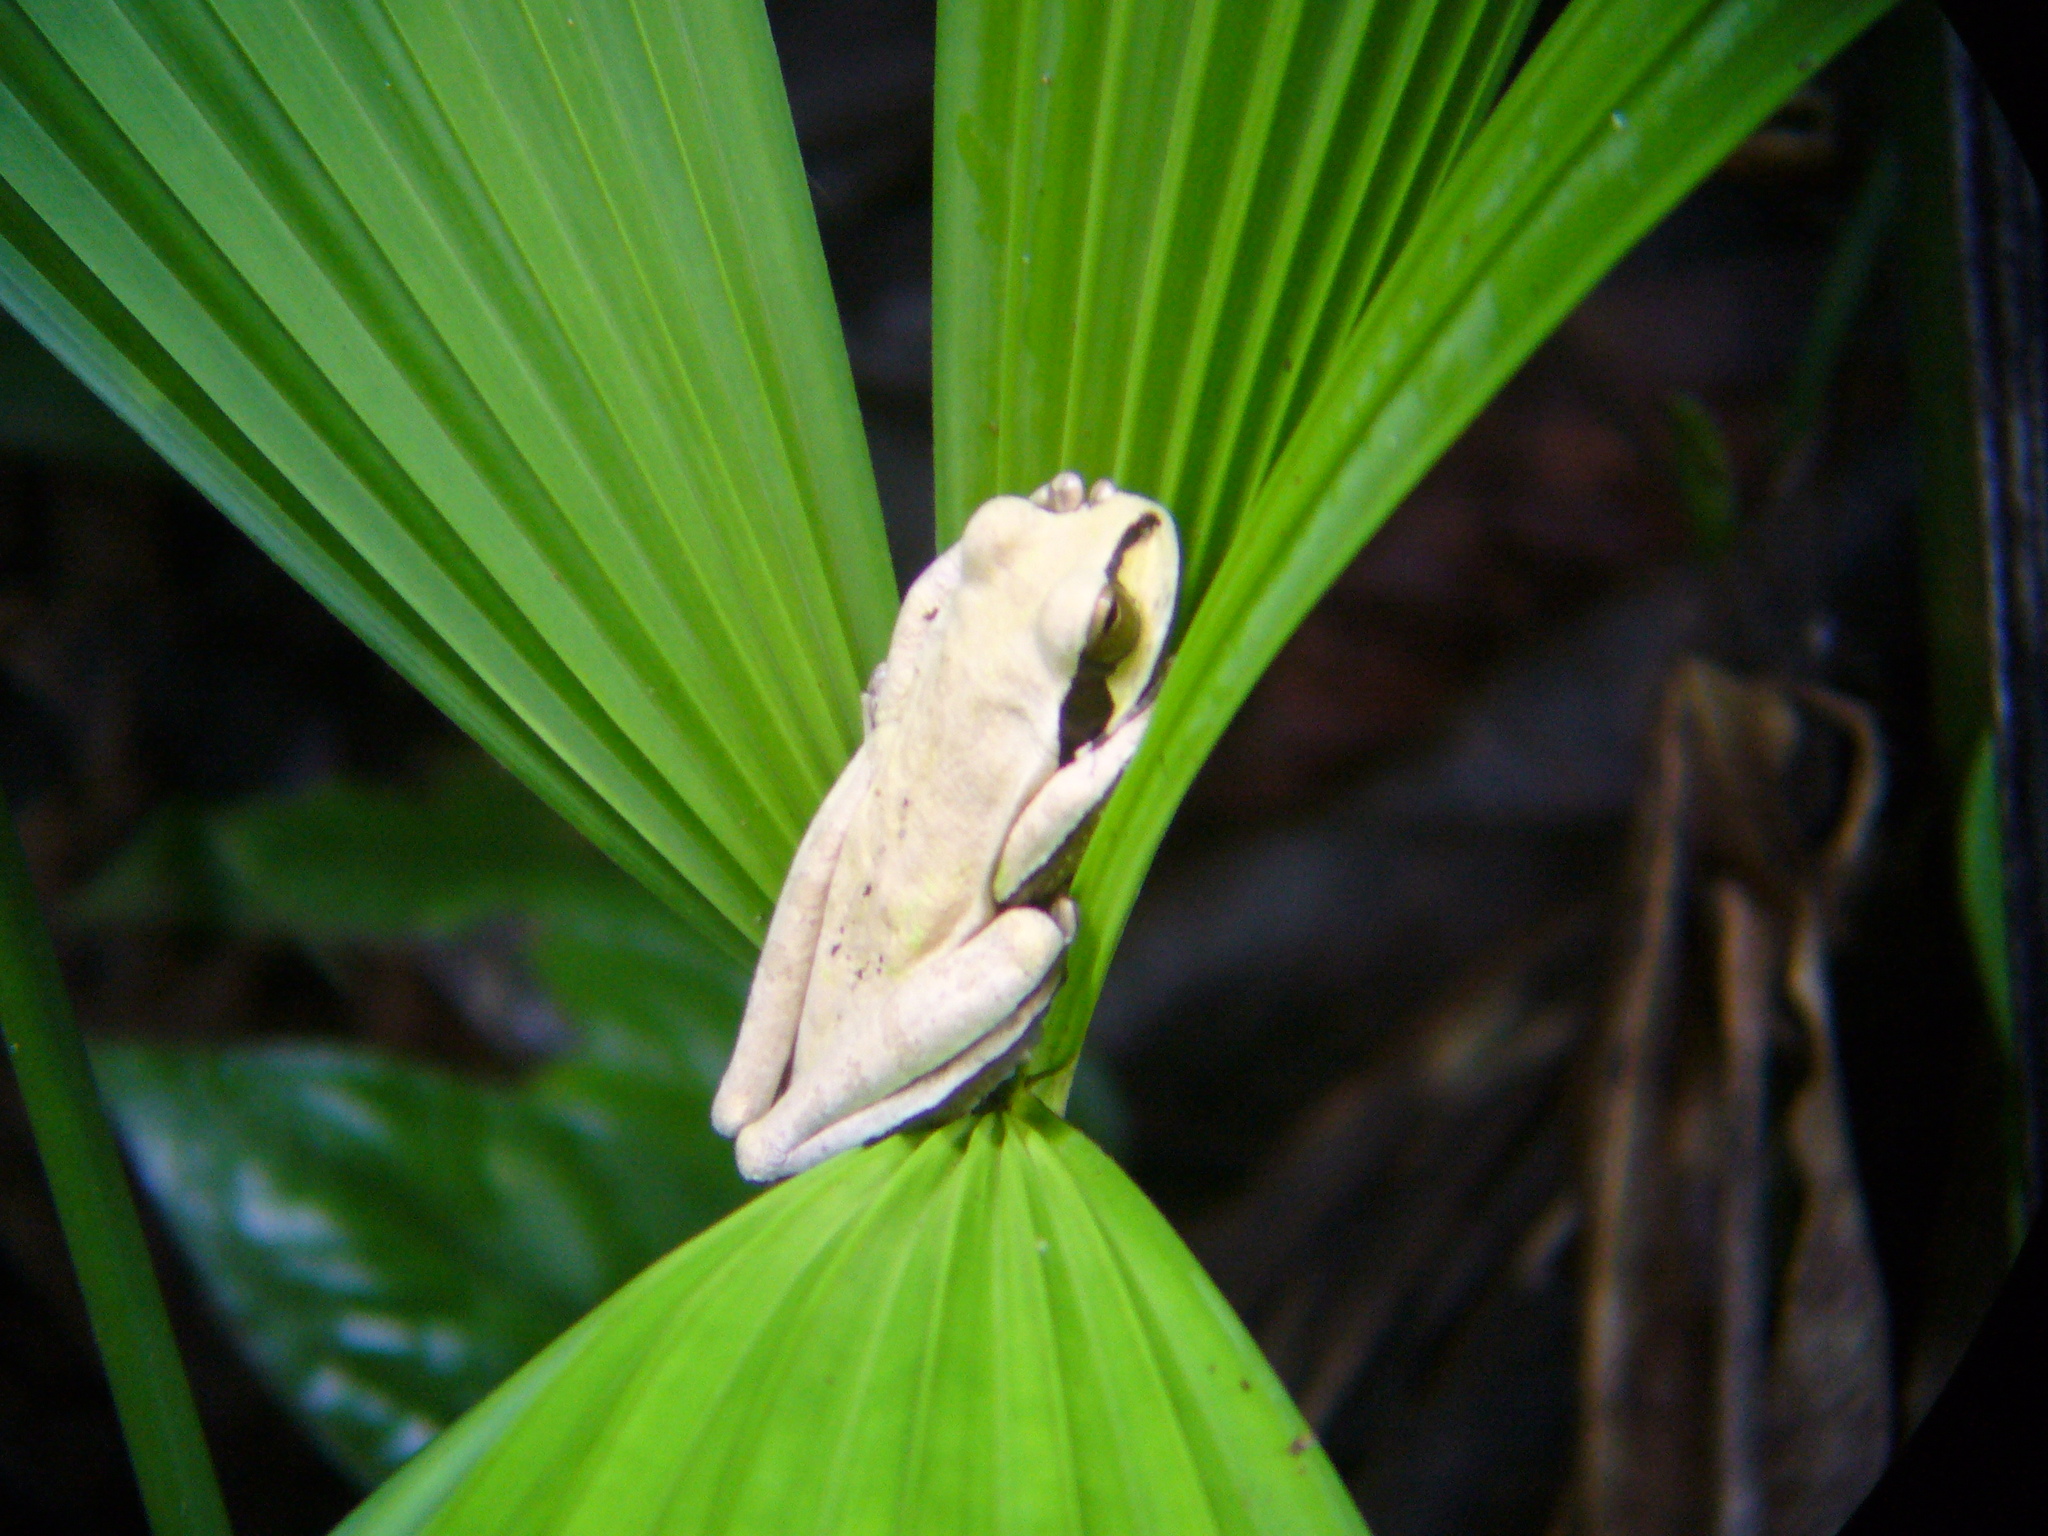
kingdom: Animalia
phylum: Chordata
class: Amphibia
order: Anura
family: Hylidae
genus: Smilisca
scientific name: Smilisca phaeota
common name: Central american smilisca
